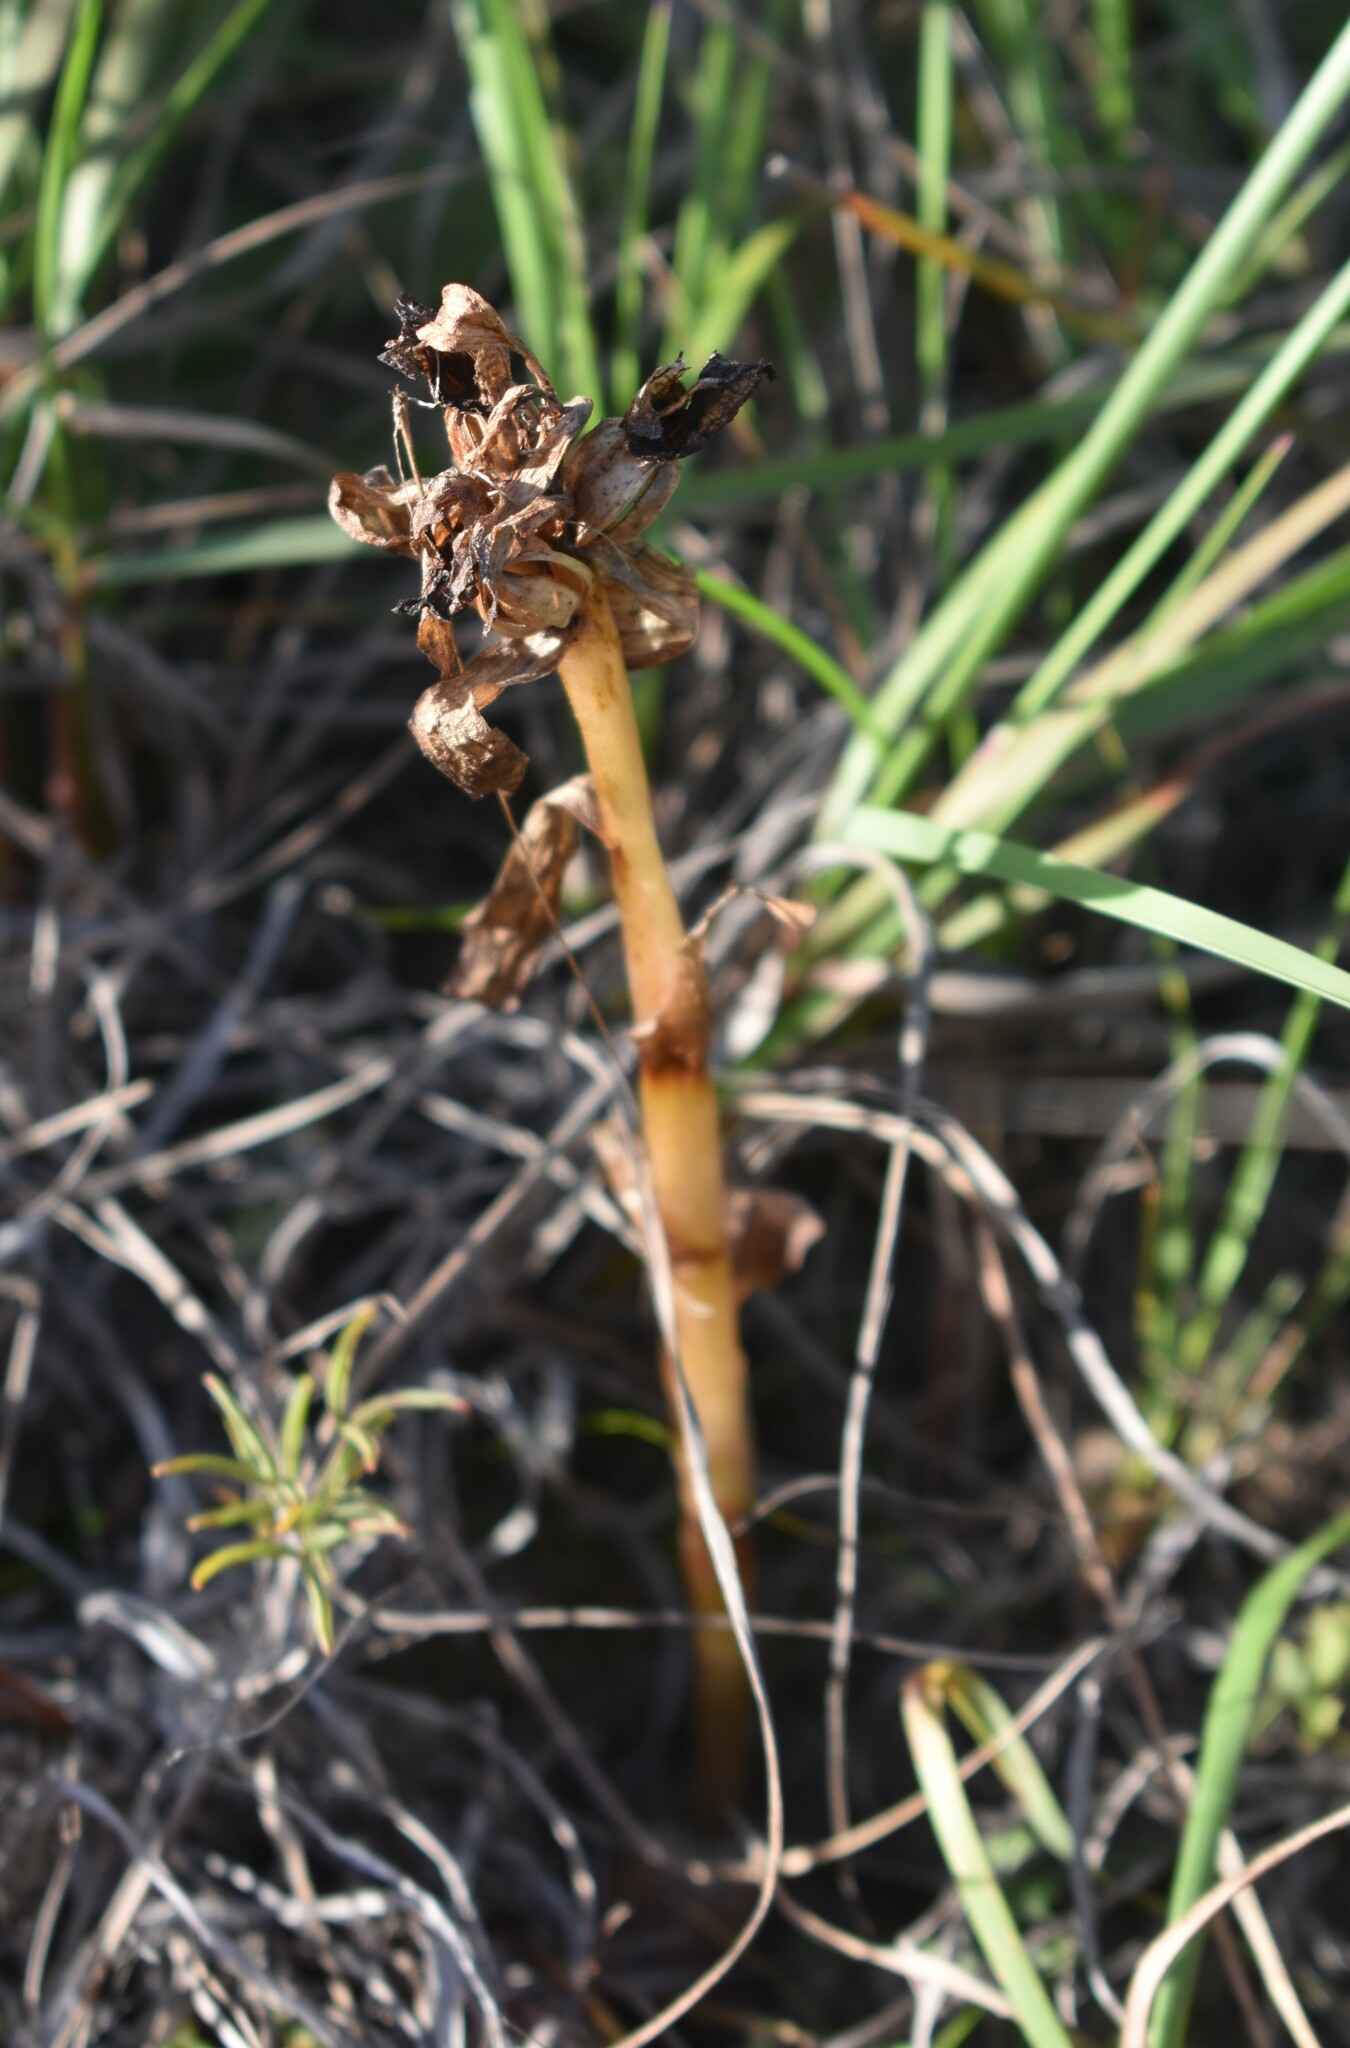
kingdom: Plantae
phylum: Tracheophyta
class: Liliopsida
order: Asparagales
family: Orchidaceae
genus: Satyrium
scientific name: Satyrium pumilum
